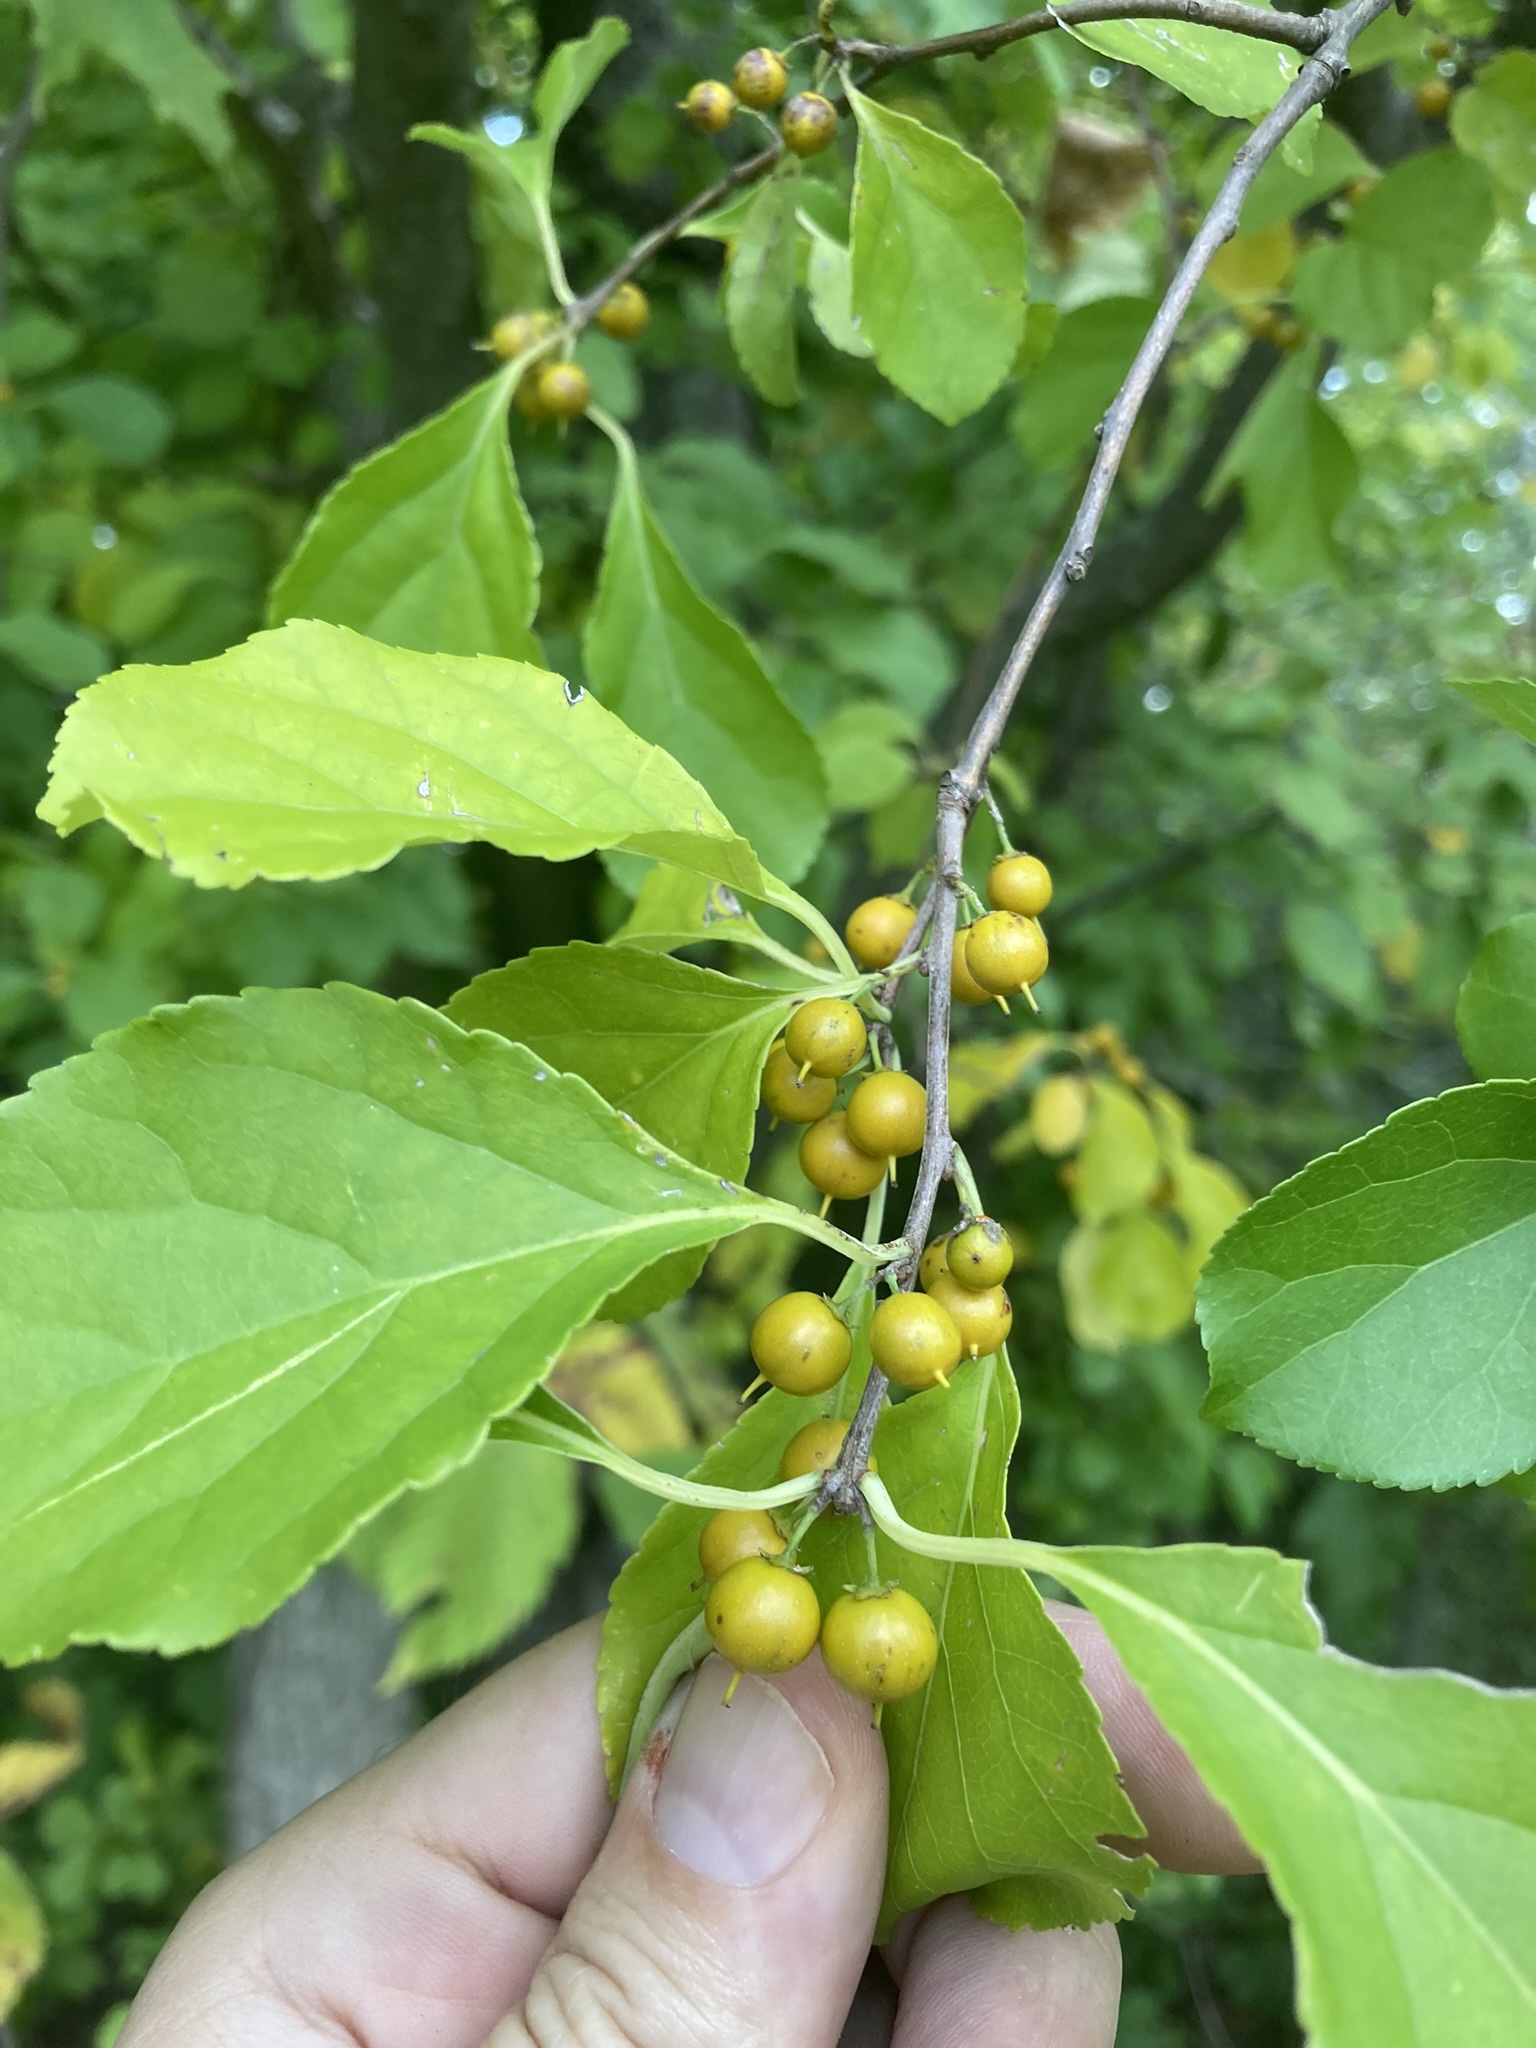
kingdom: Plantae
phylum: Tracheophyta
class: Magnoliopsida
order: Celastrales
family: Celastraceae
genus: Celastrus
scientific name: Celastrus orbiculatus
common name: Oriental bittersweet
